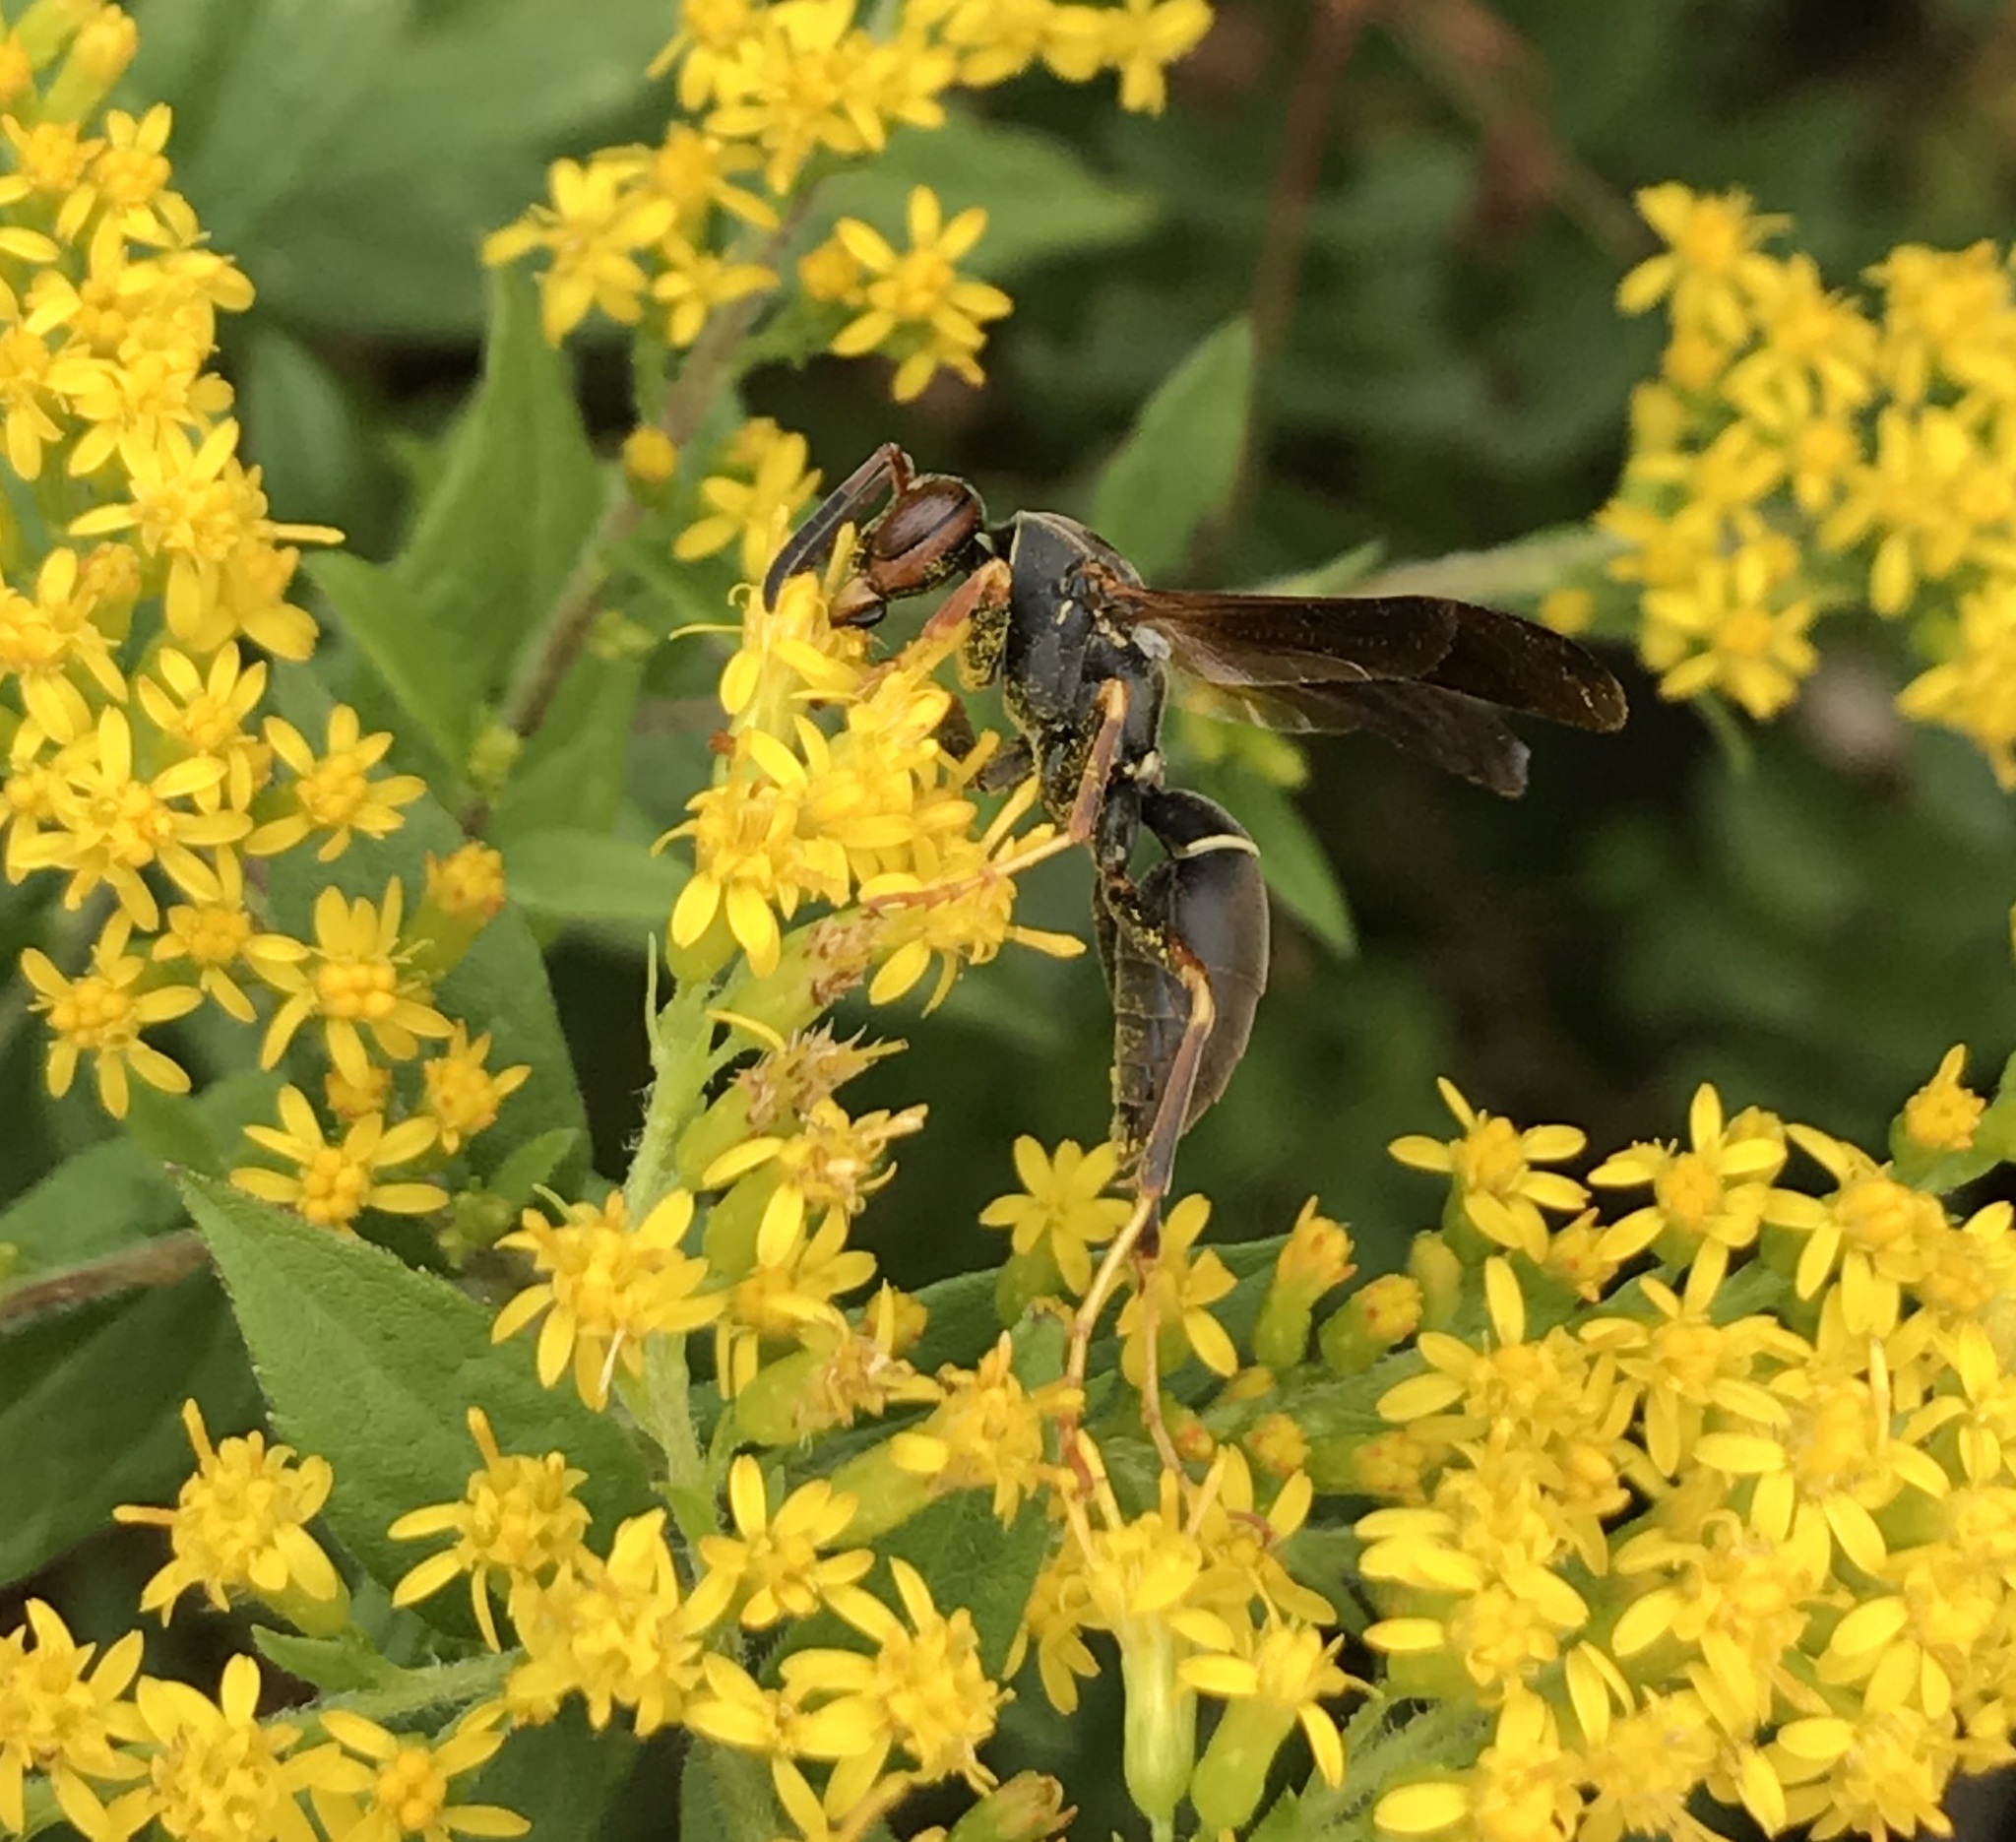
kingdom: Animalia
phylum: Arthropoda
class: Insecta
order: Hymenoptera
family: Eumenidae
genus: Polistes
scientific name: Polistes fuscatus
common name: Dark paper wasp
